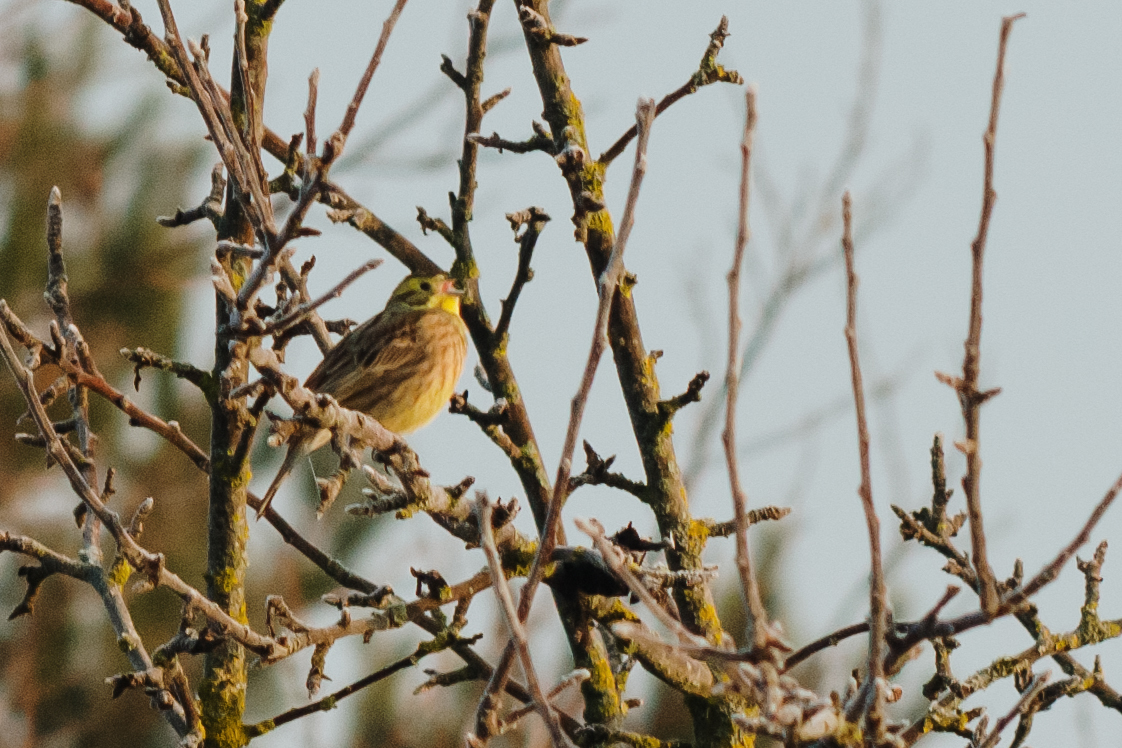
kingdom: Animalia
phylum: Chordata
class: Aves
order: Passeriformes
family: Emberizidae
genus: Emberiza
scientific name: Emberiza citrinella
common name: Yellowhammer
